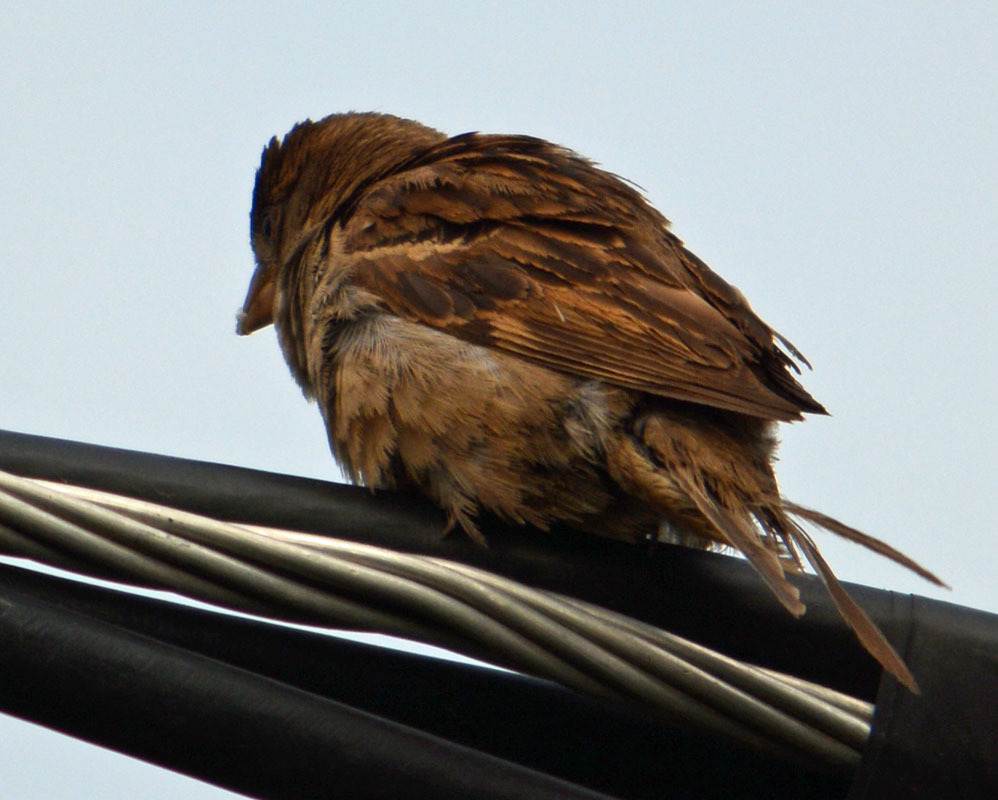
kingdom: Animalia
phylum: Chordata
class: Aves
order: Passeriformes
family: Passeridae
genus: Passer
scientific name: Passer domesticus
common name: House sparrow
